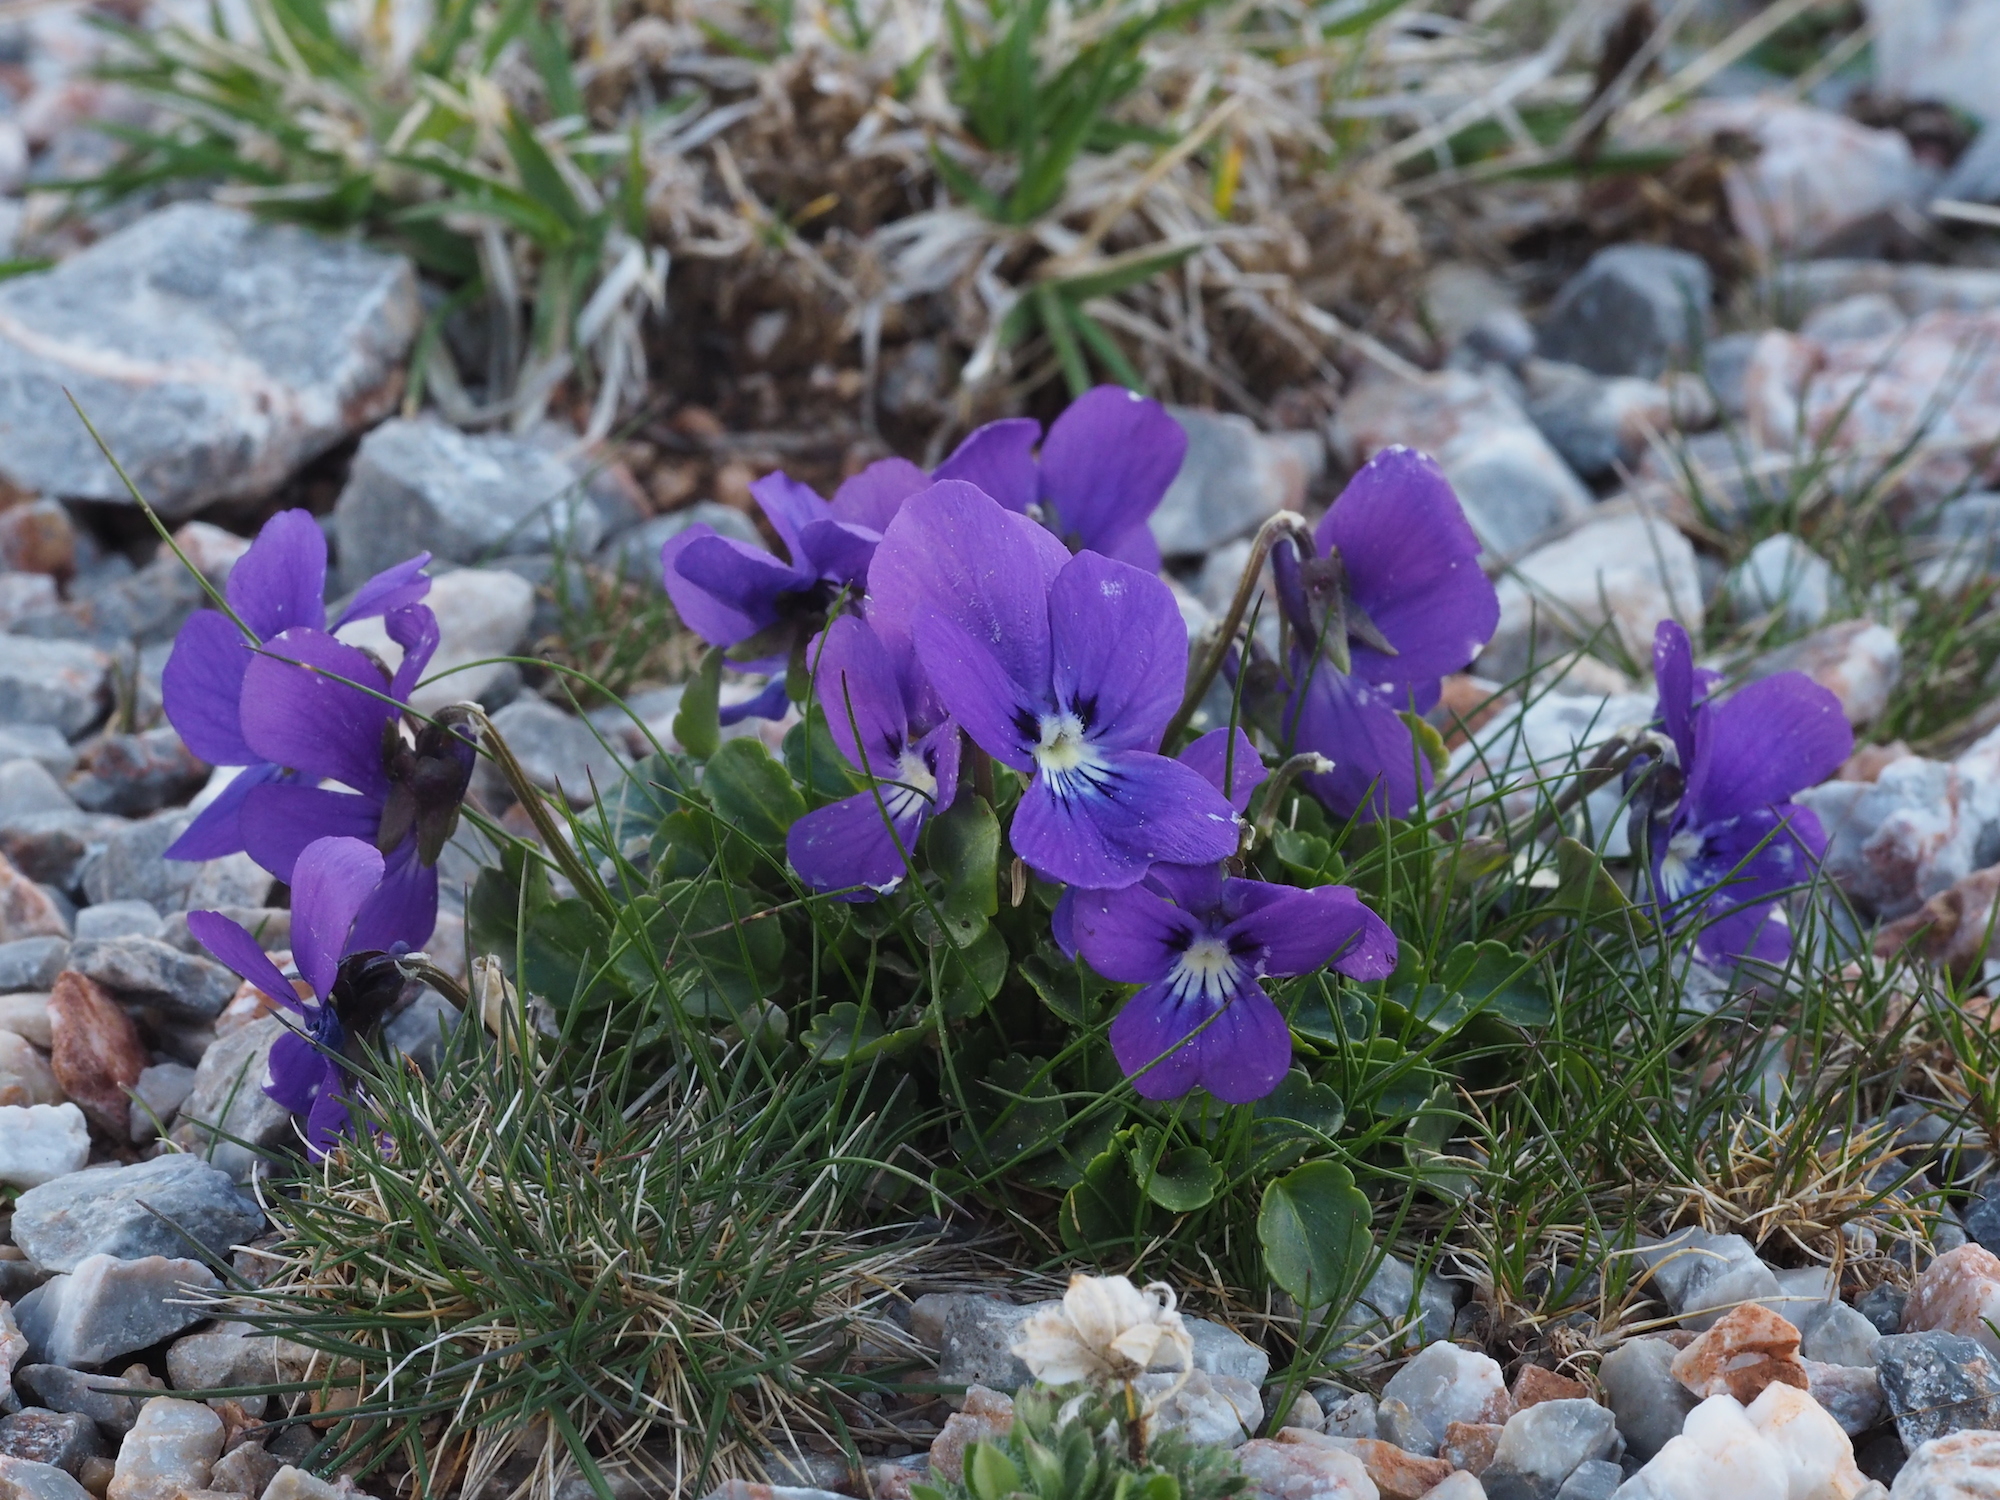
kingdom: Plantae
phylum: Tracheophyta
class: Magnoliopsida
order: Malpighiales
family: Violaceae
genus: Viola
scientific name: Viola alpina
